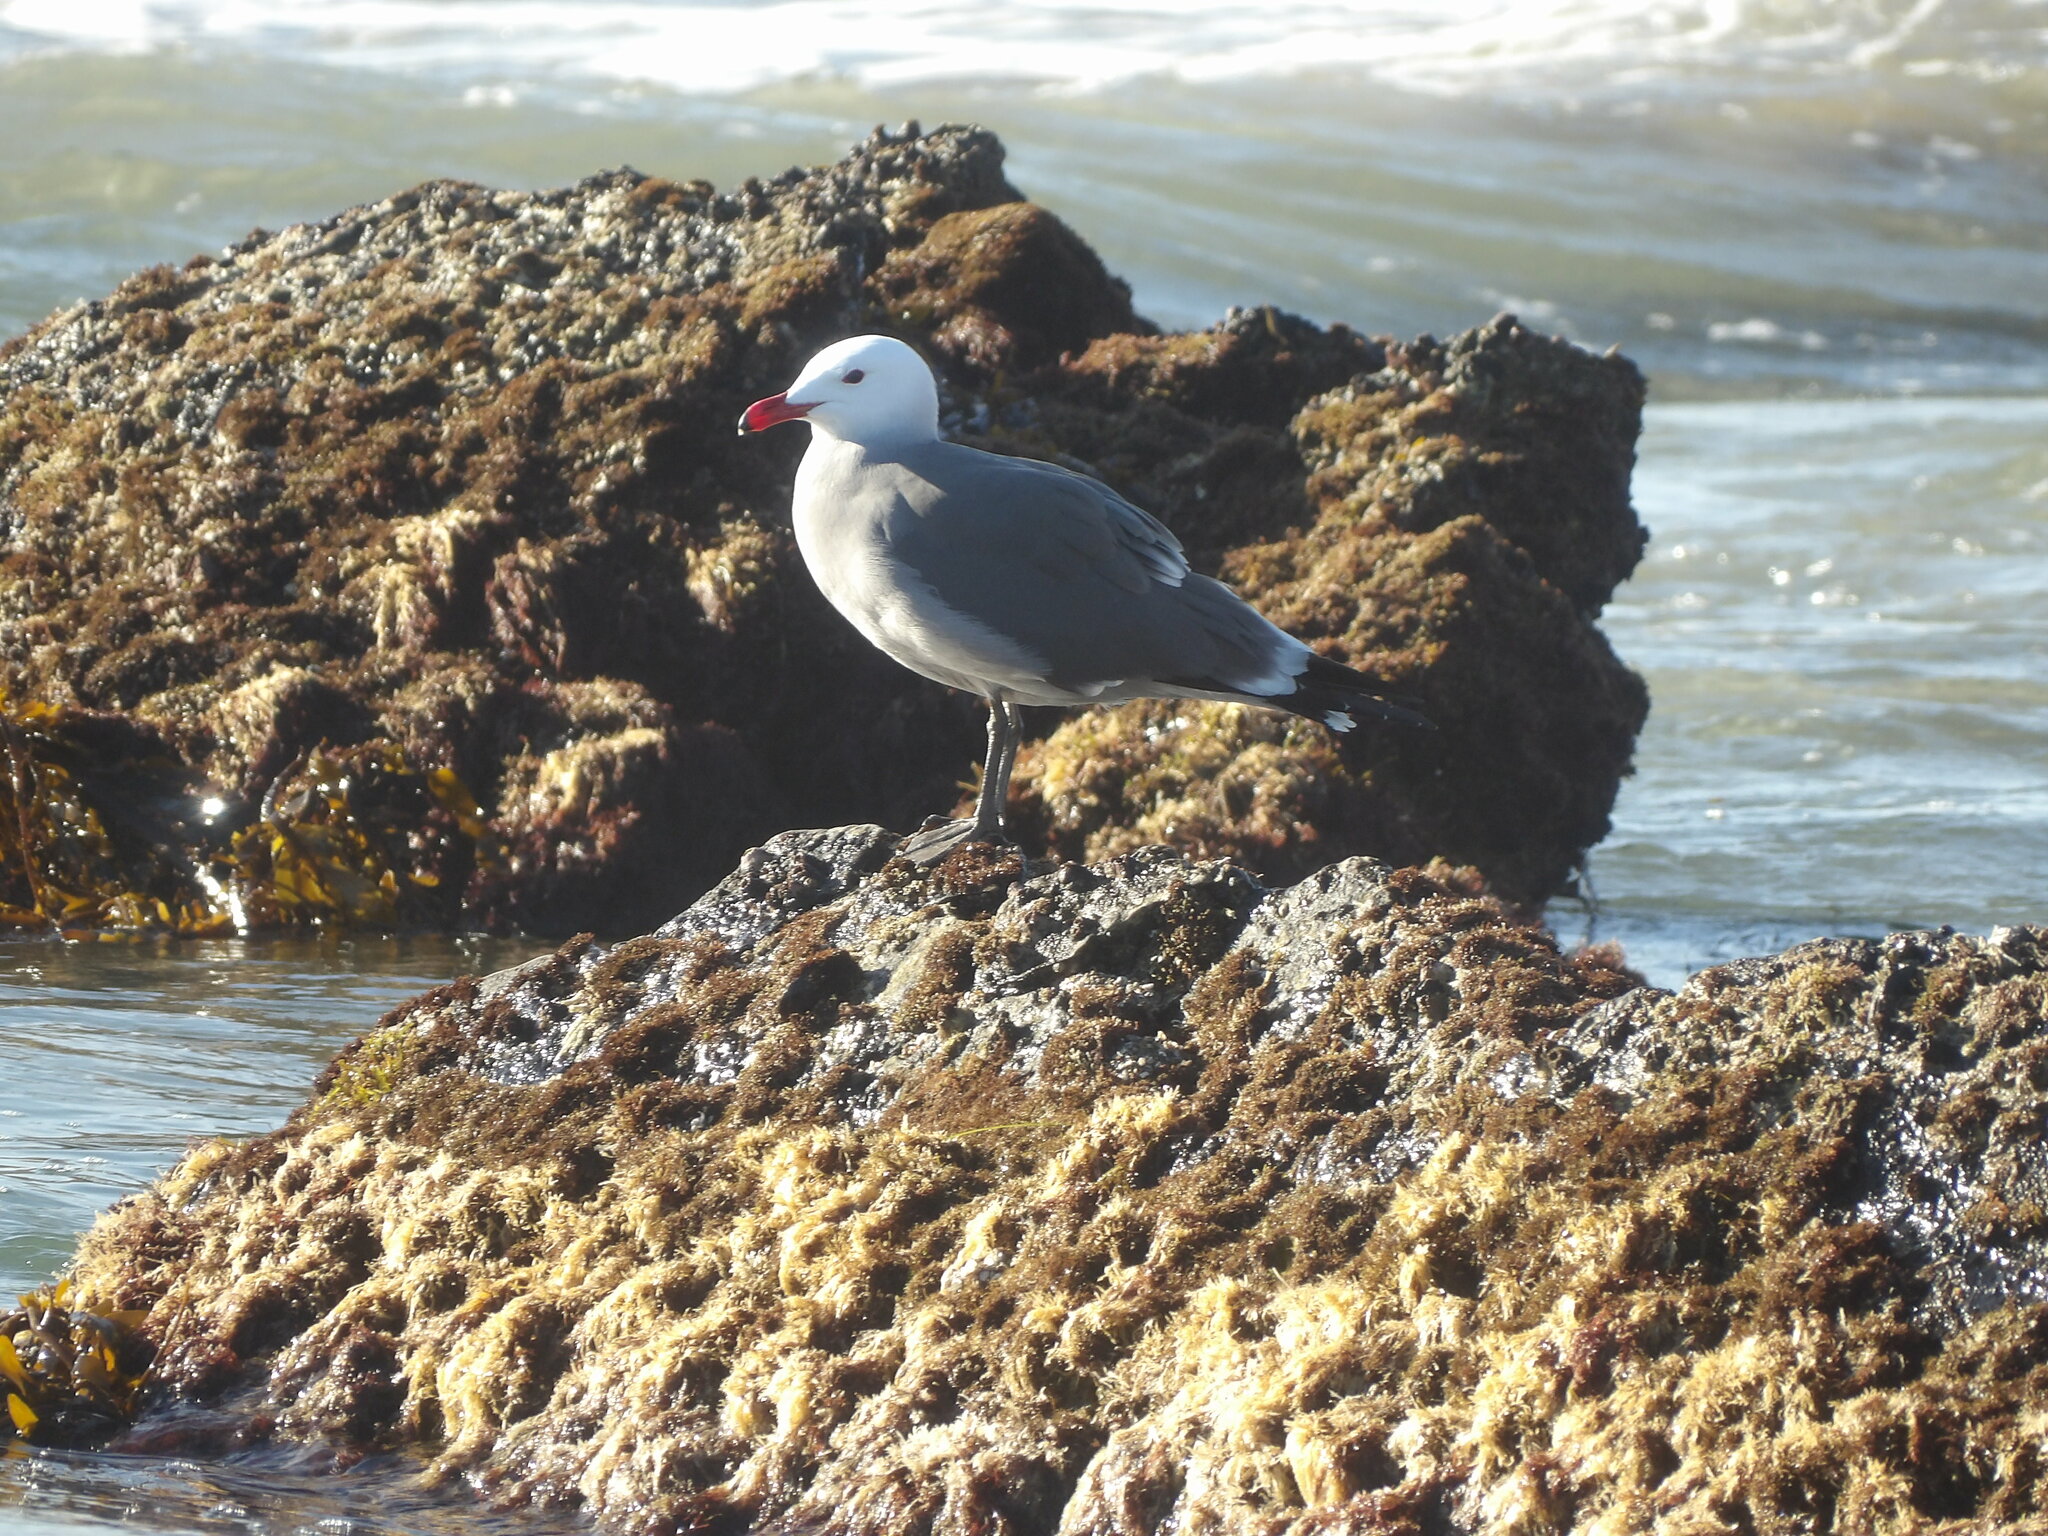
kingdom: Animalia
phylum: Chordata
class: Aves
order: Charadriiformes
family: Laridae
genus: Larus
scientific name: Larus heermanni
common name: Heermann's gull
